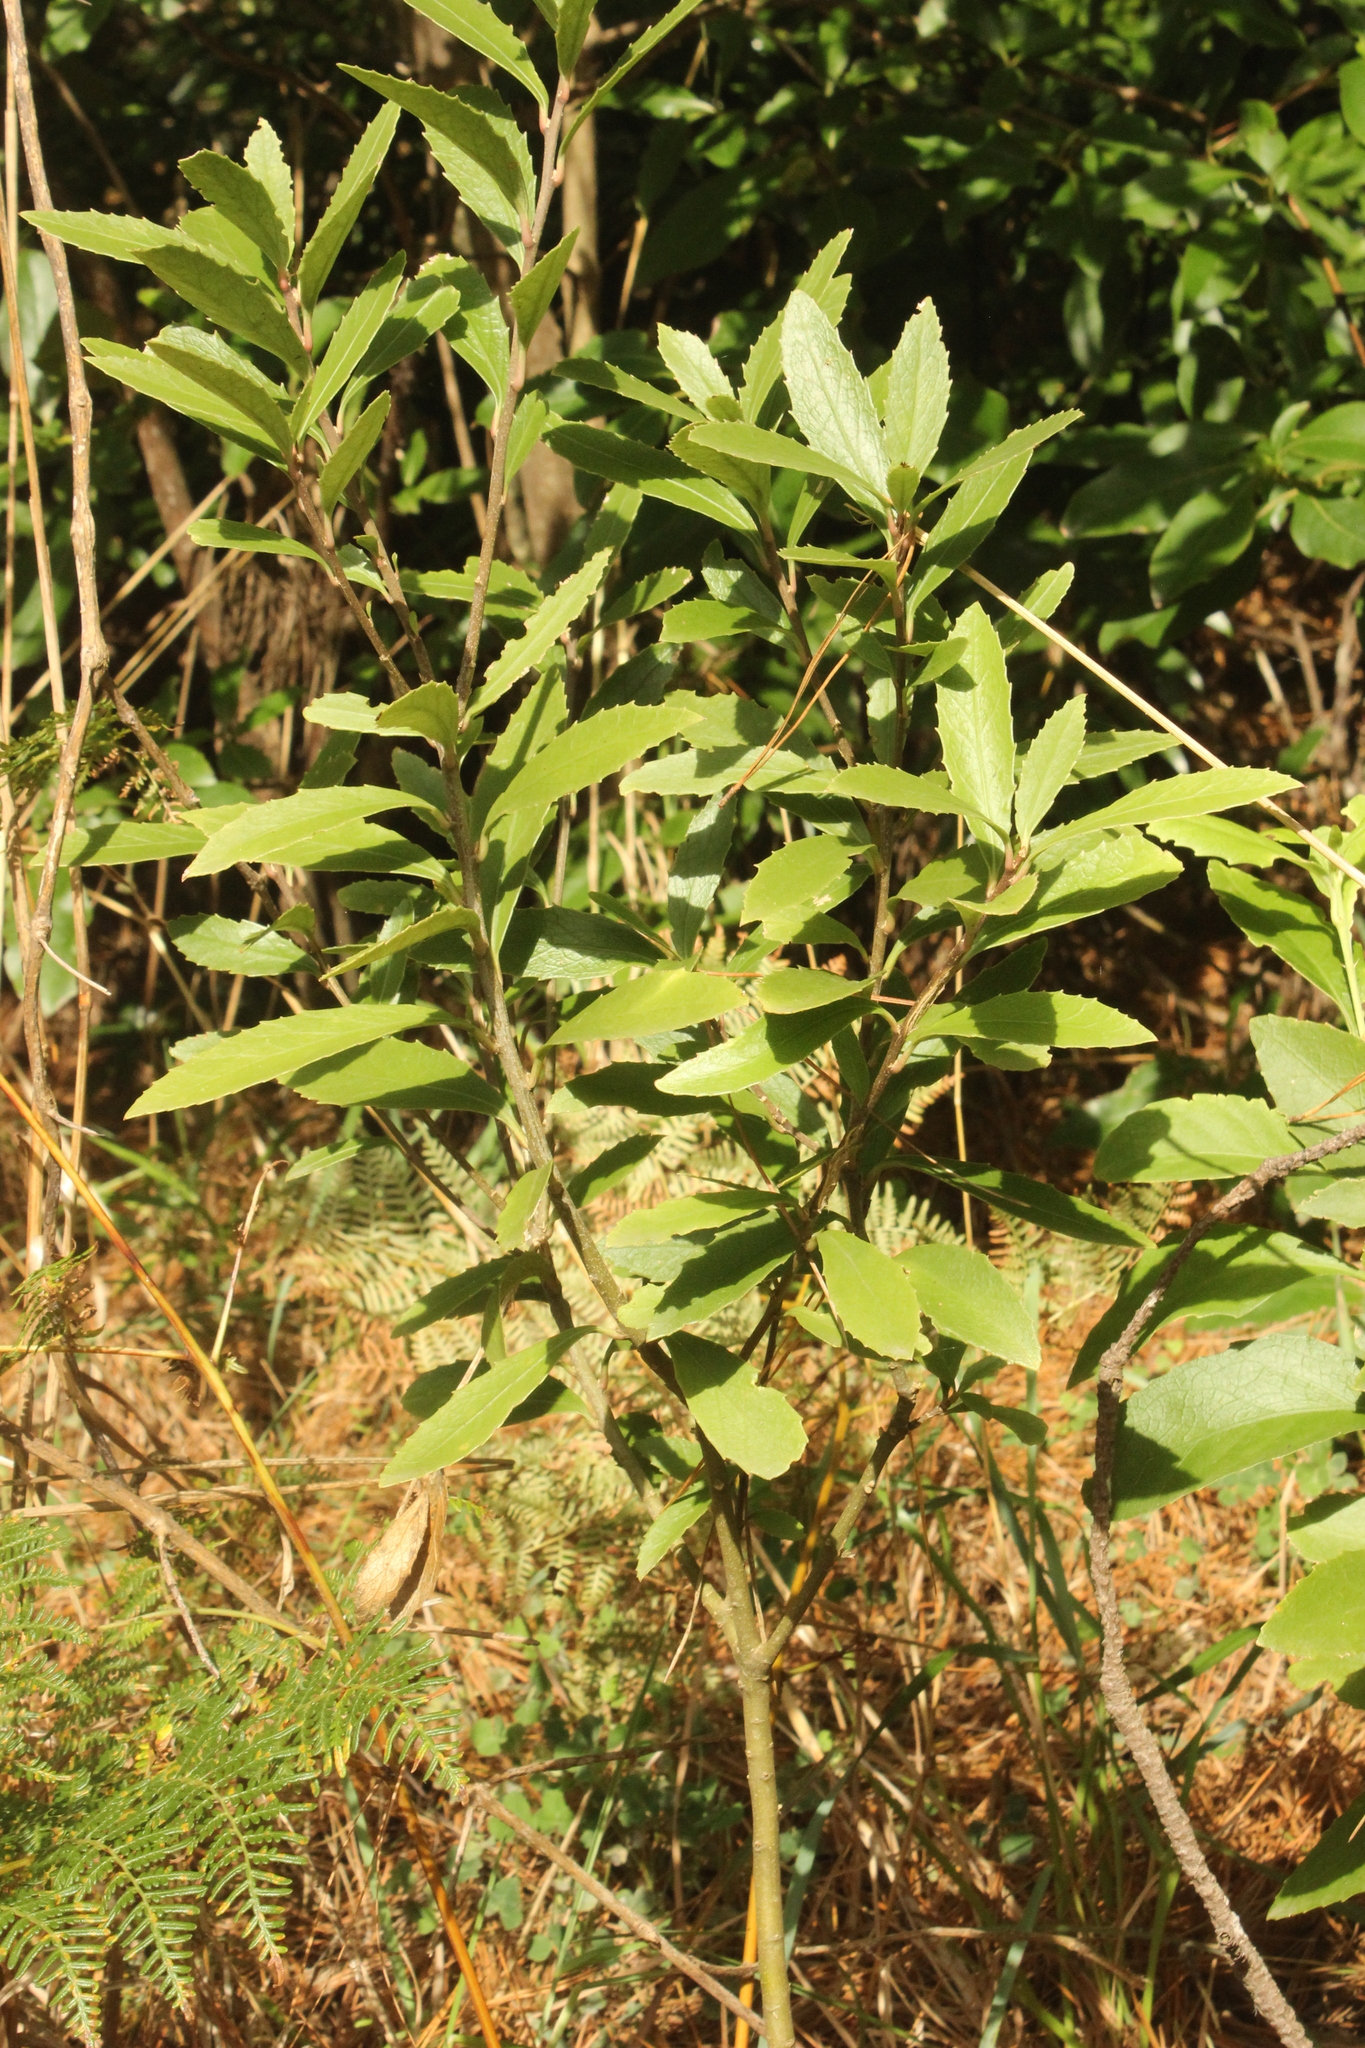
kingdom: Plantae
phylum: Tracheophyta
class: Magnoliopsida
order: Malpighiales
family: Violaceae
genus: Melicytus
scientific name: Melicytus chathamicus
